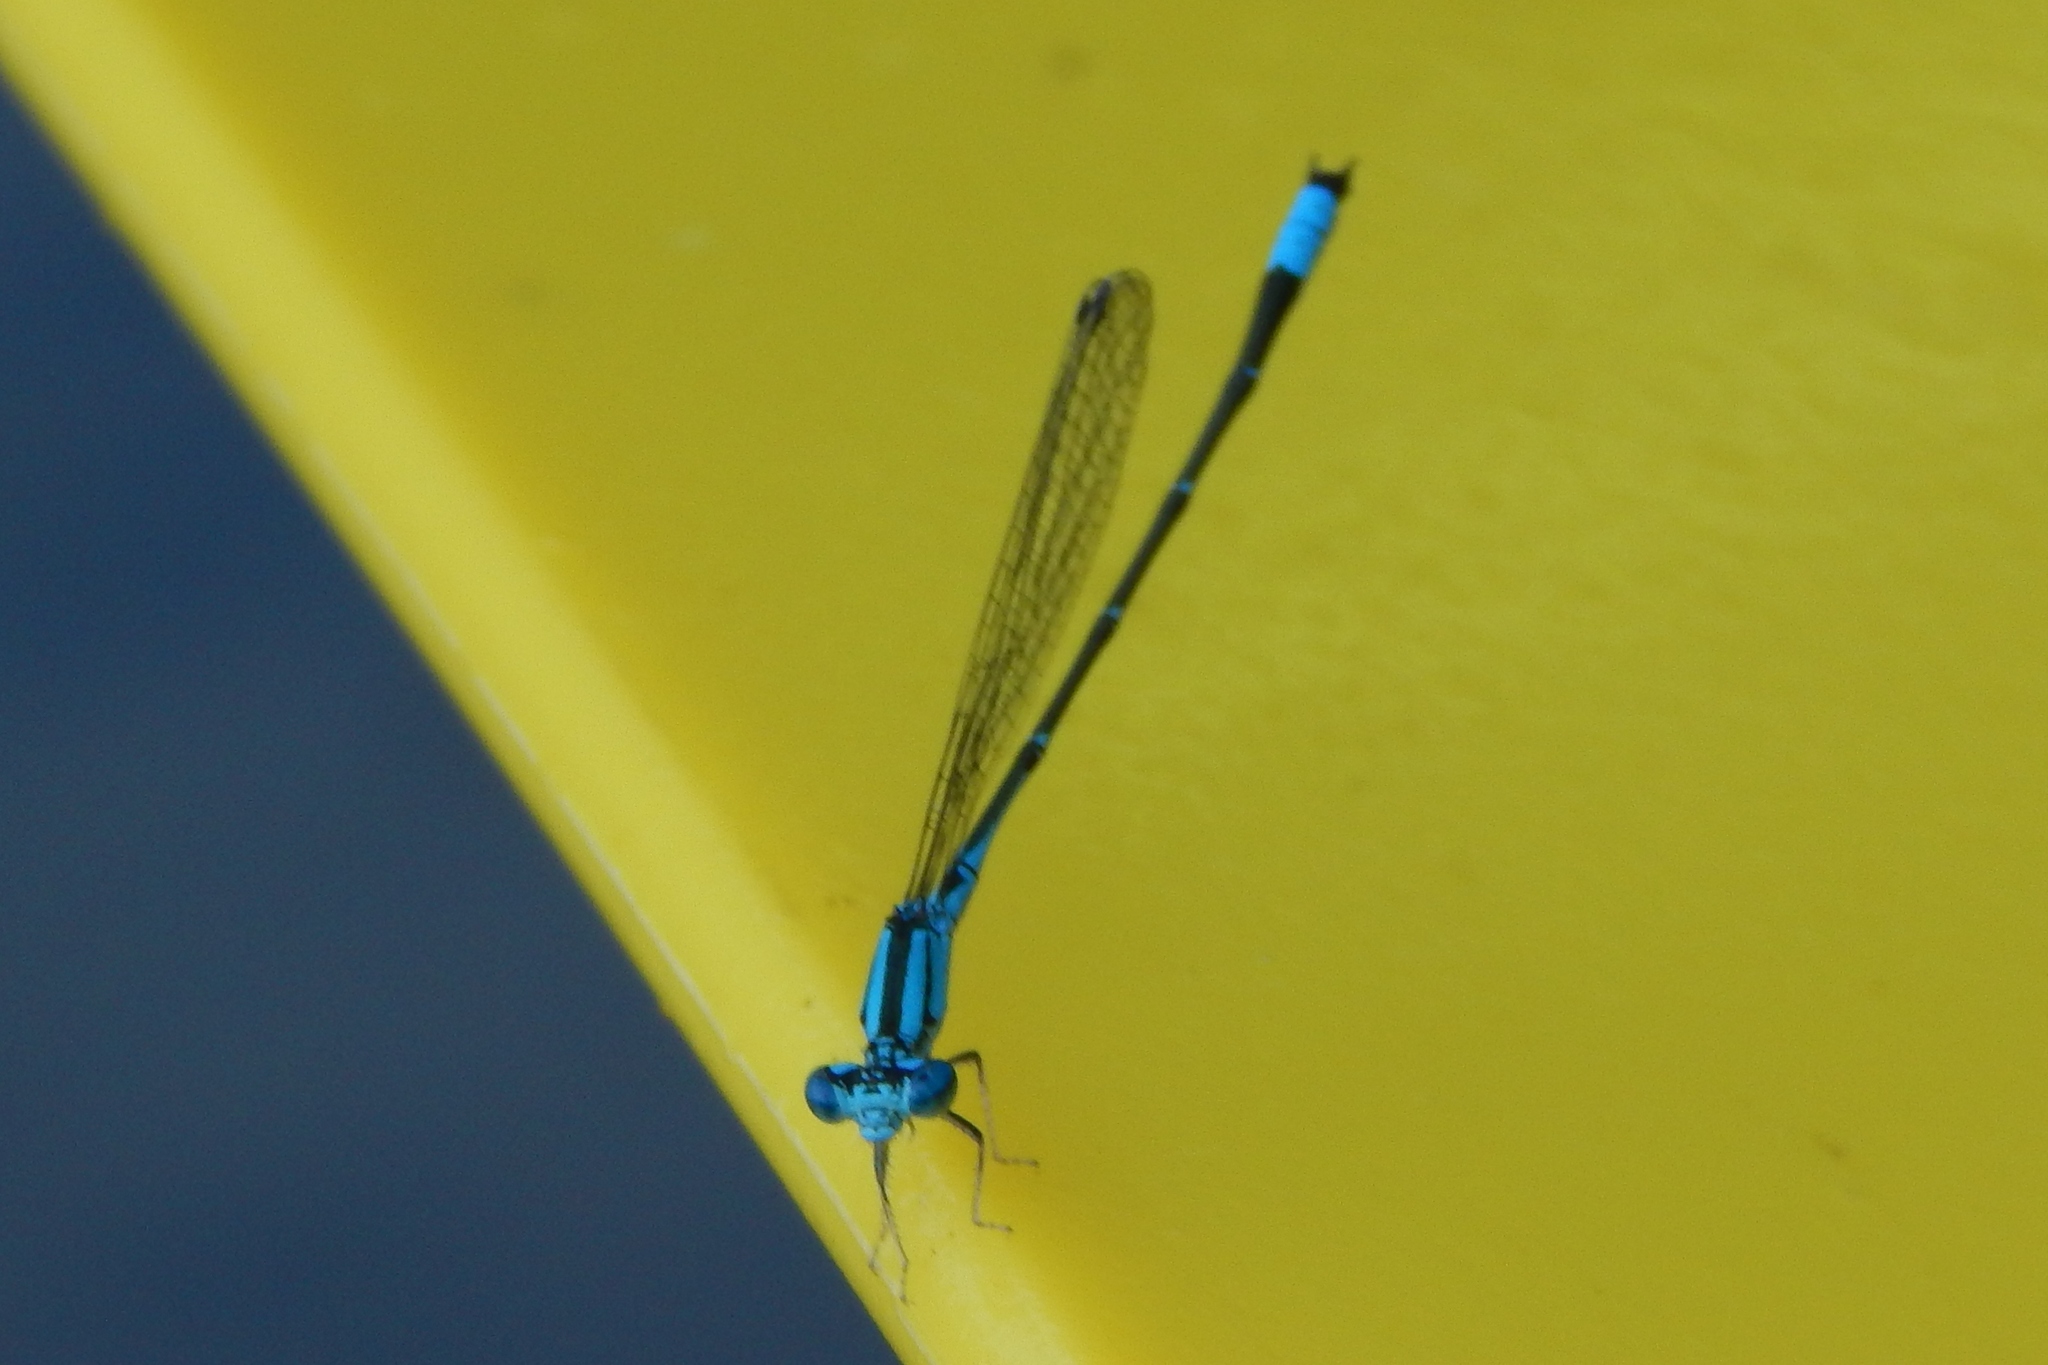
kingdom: Animalia
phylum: Arthropoda
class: Insecta
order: Odonata
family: Coenagrionidae
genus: Enallagma
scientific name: Enallagma traviatum
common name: Slender bluet
